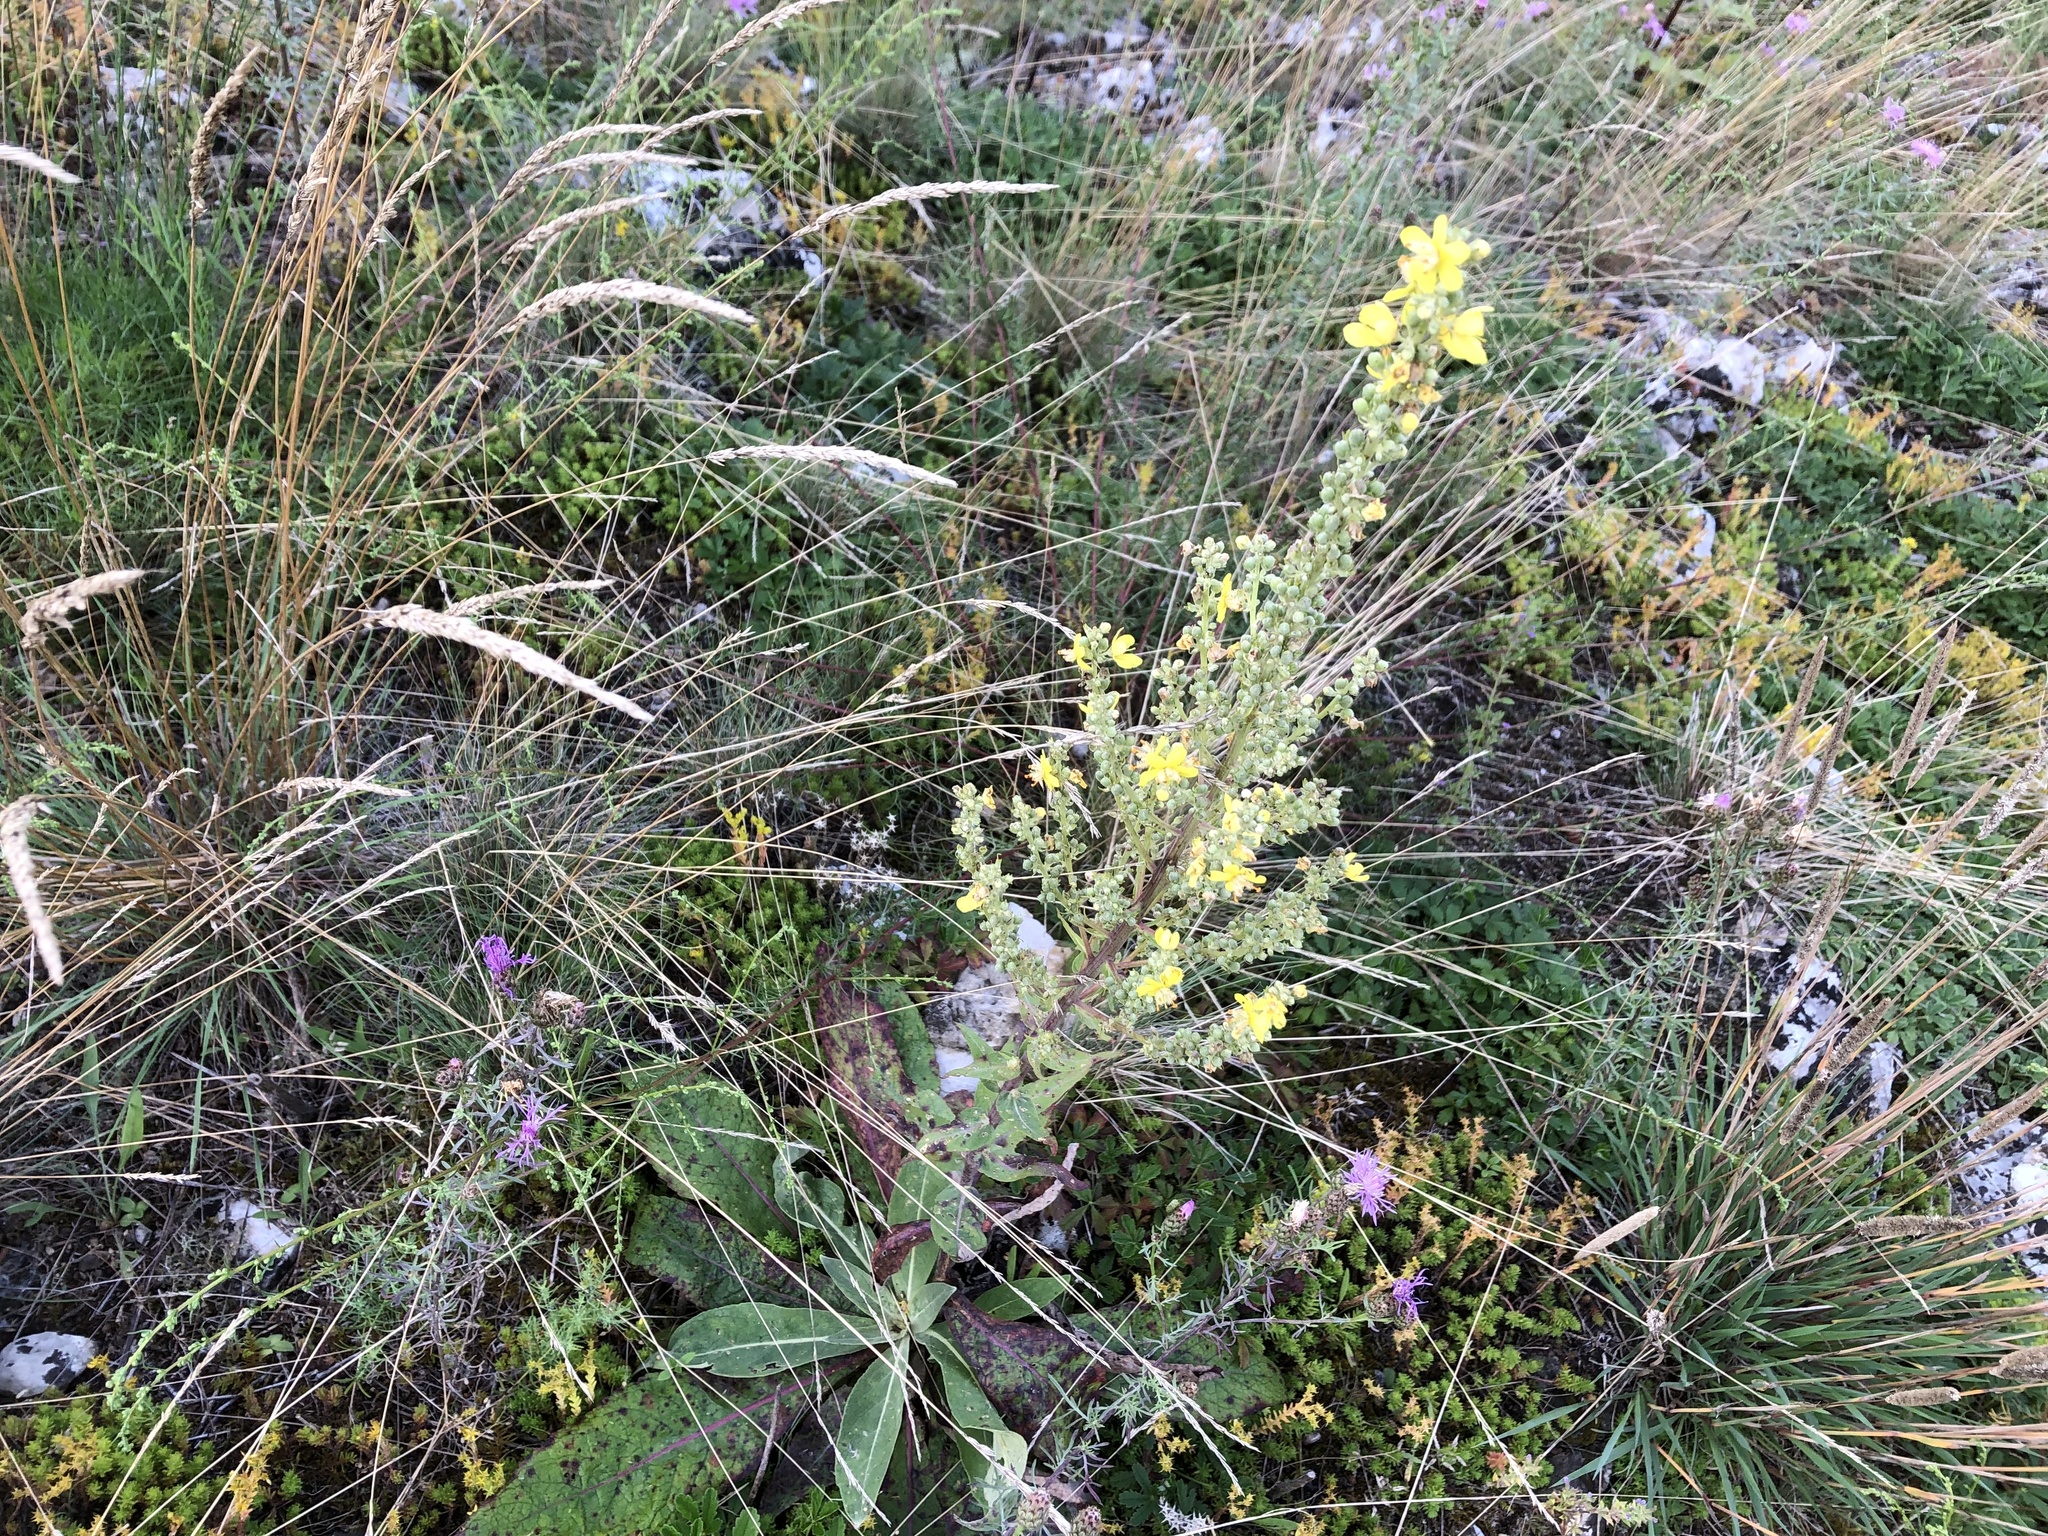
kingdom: Plantae
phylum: Tracheophyta
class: Magnoliopsida
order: Lamiales
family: Scrophulariaceae
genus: Verbascum
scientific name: Verbascum lychnitis
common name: White mullein
